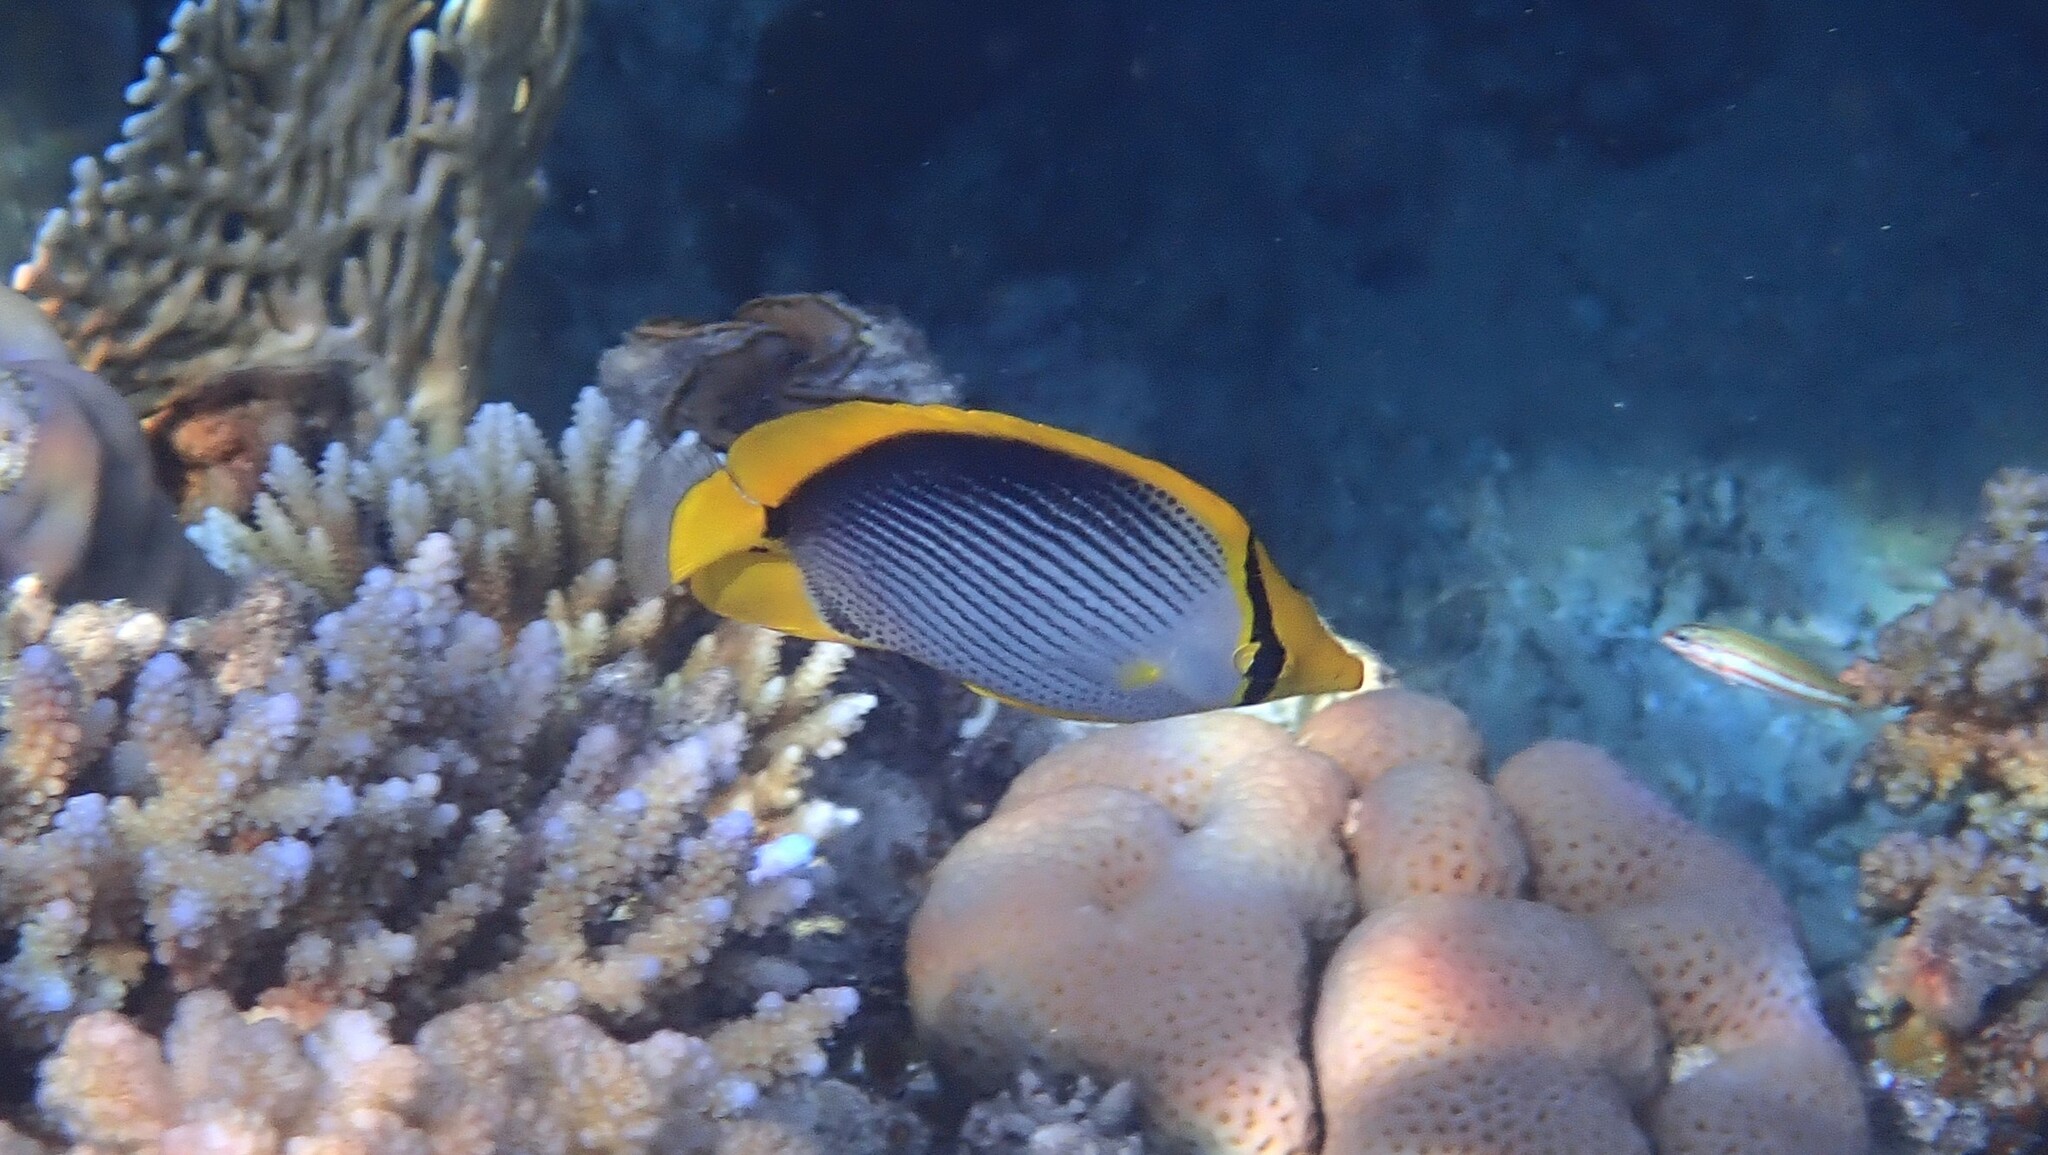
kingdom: Animalia
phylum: Chordata
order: Perciformes
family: Chaetodontidae
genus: Chaetodon
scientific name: Chaetodon melannotus
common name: Blackback butterflyfish
